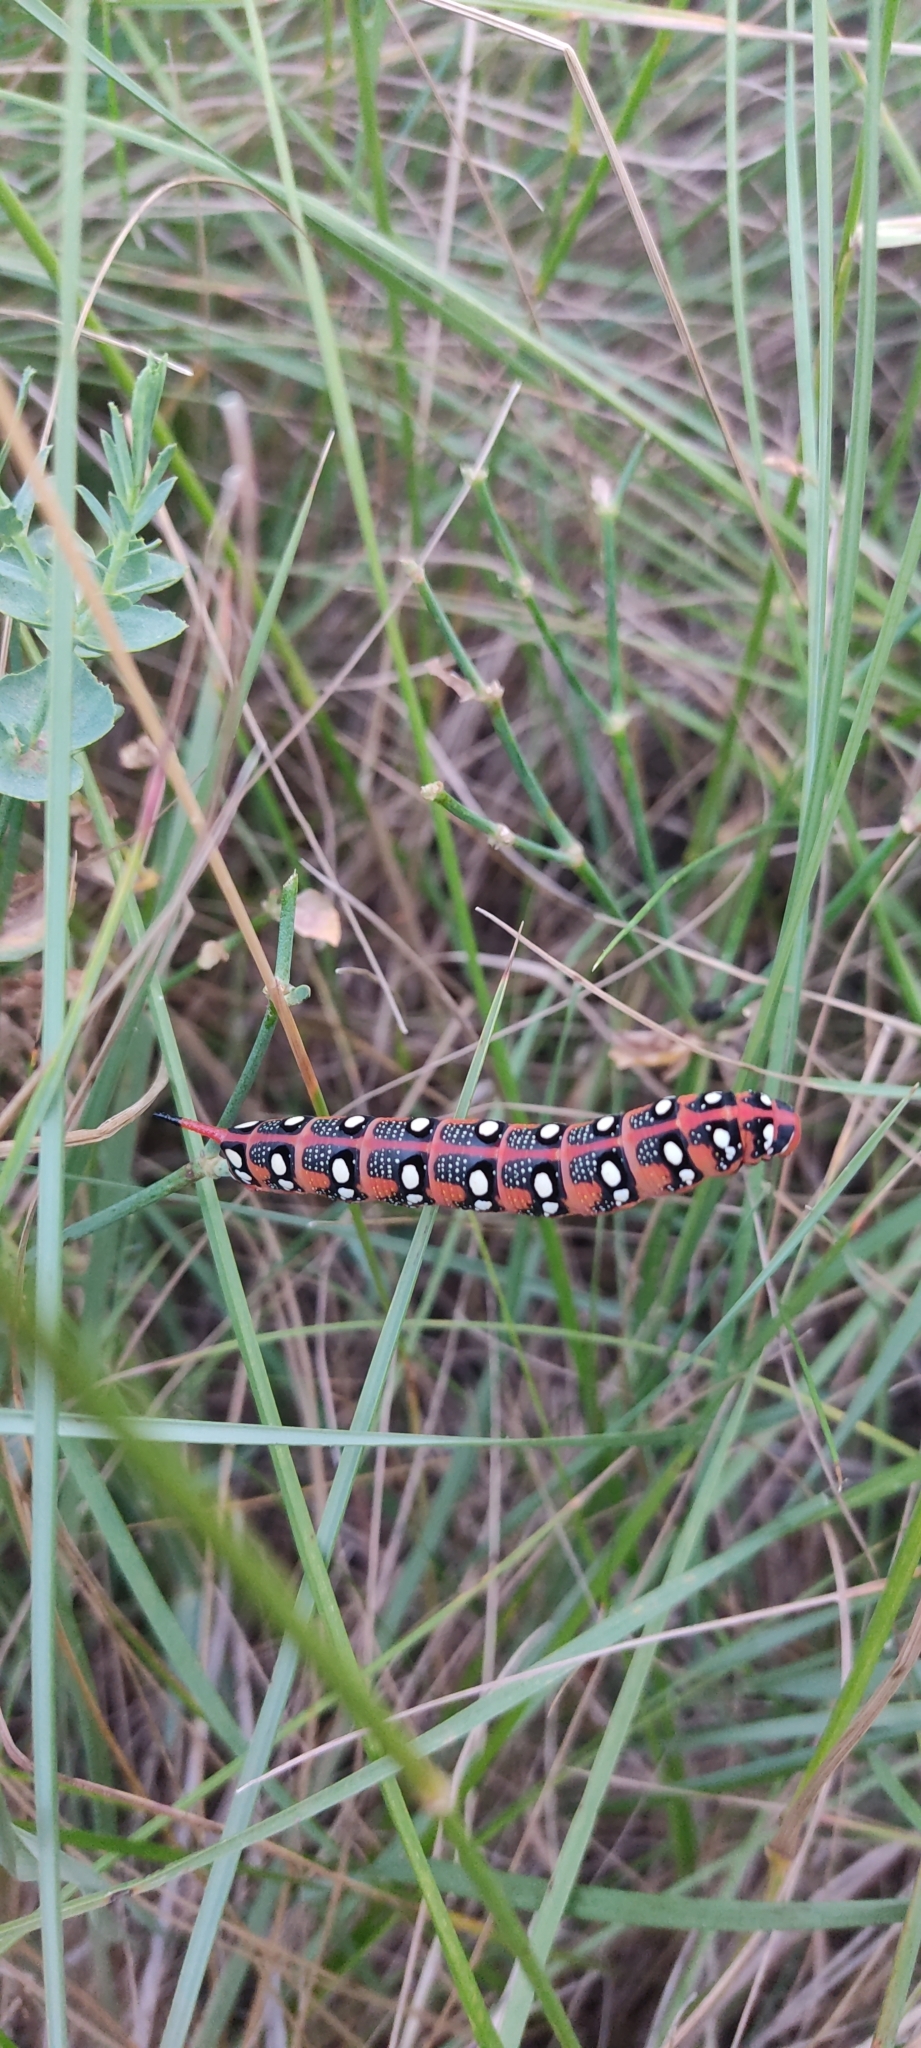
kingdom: Animalia
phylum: Arthropoda
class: Insecta
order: Lepidoptera
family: Sphingidae
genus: Hyles
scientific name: Hyles euphorbiae
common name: Spurge hawk-moth
